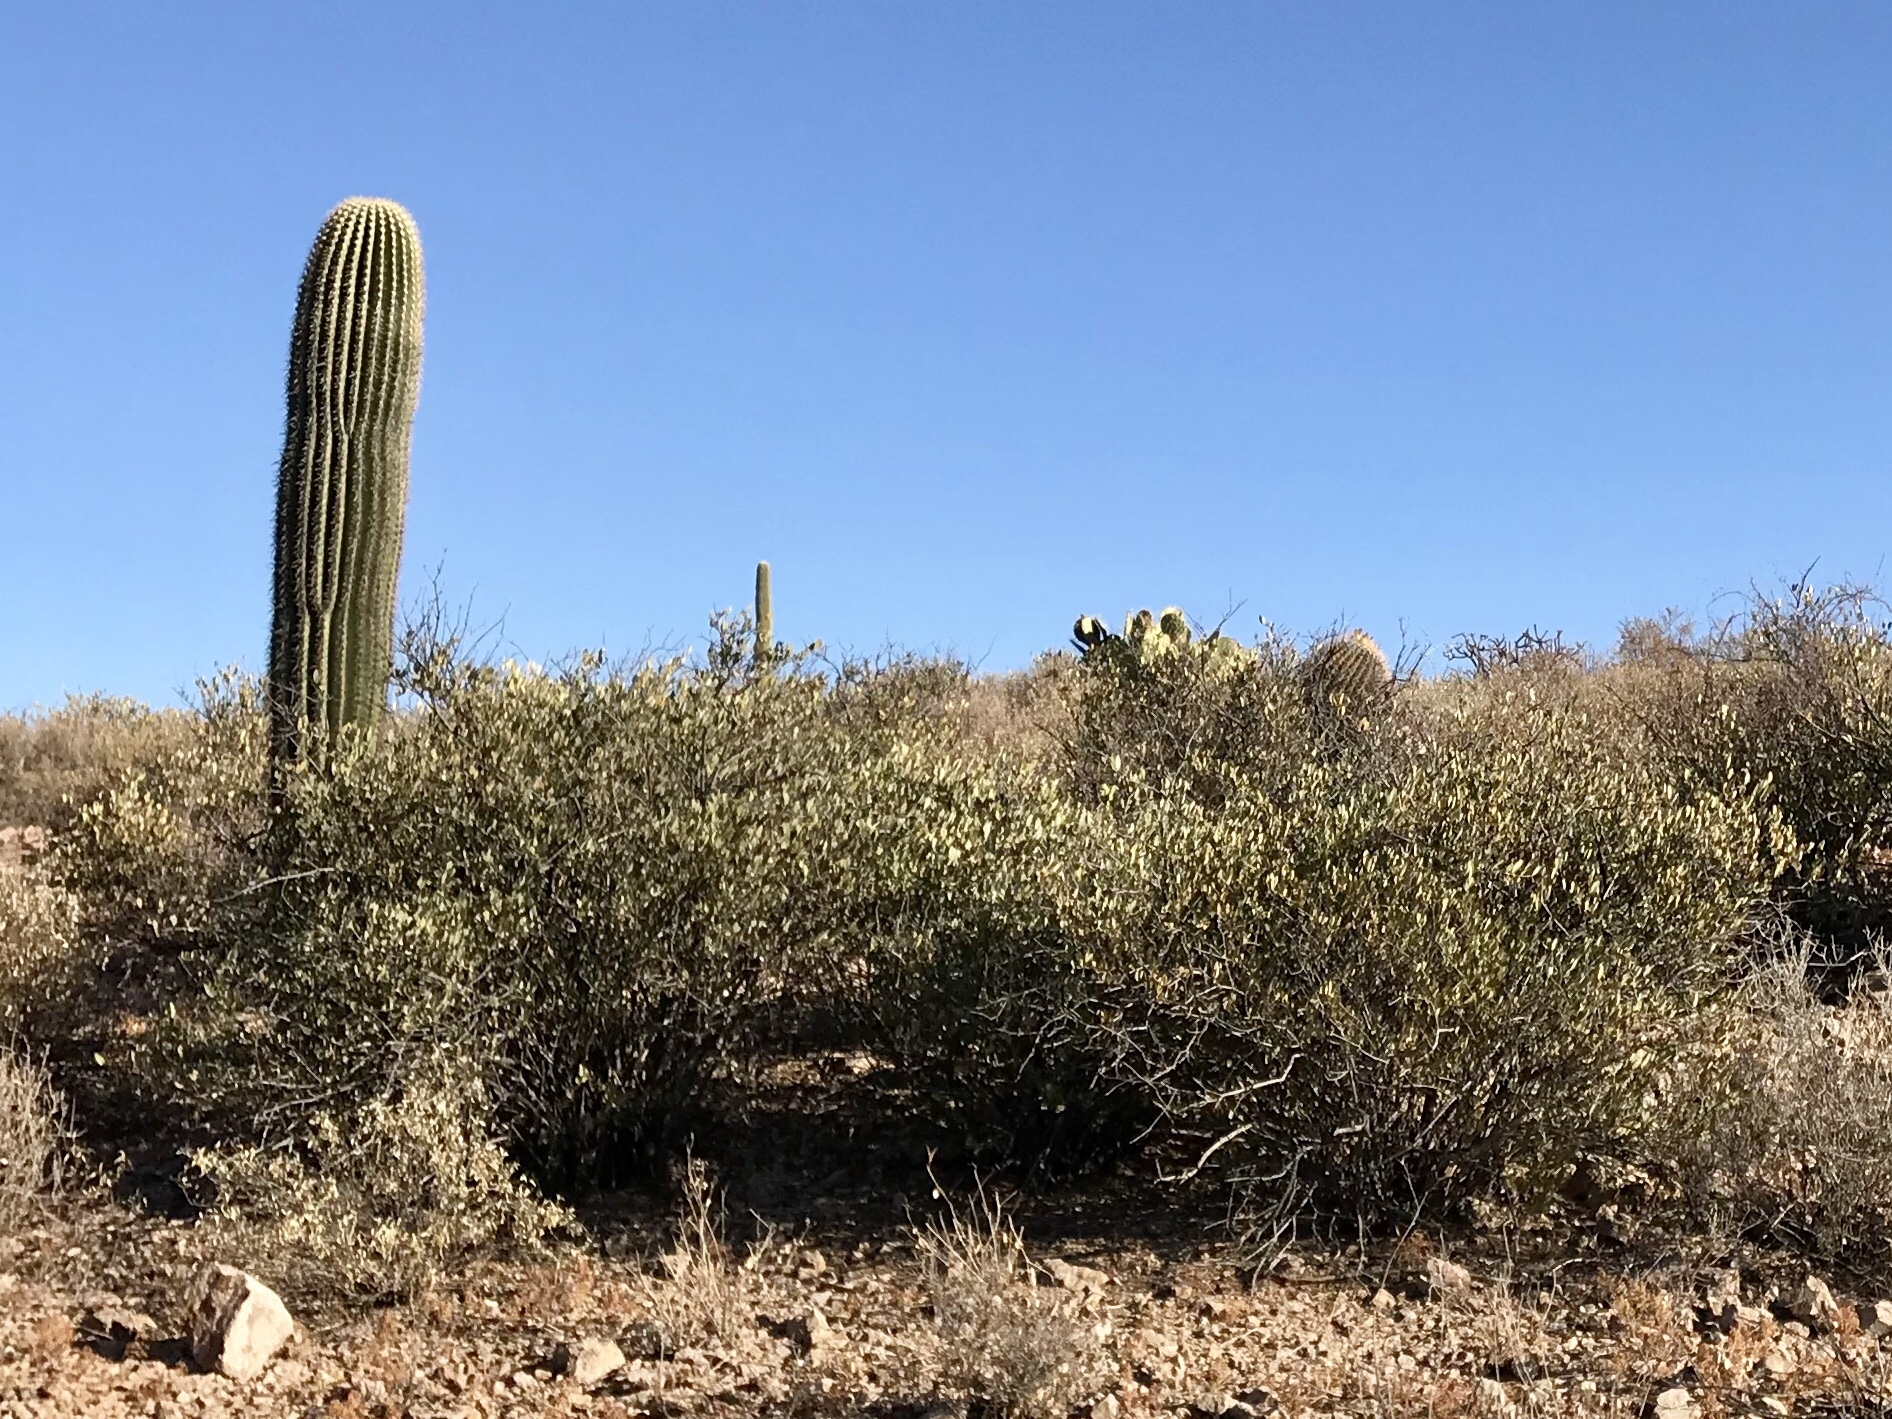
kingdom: Plantae
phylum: Tracheophyta
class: Magnoliopsida
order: Caryophyllales
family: Simmondsiaceae
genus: Simmondsia
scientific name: Simmondsia chinensis
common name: Jojoba
